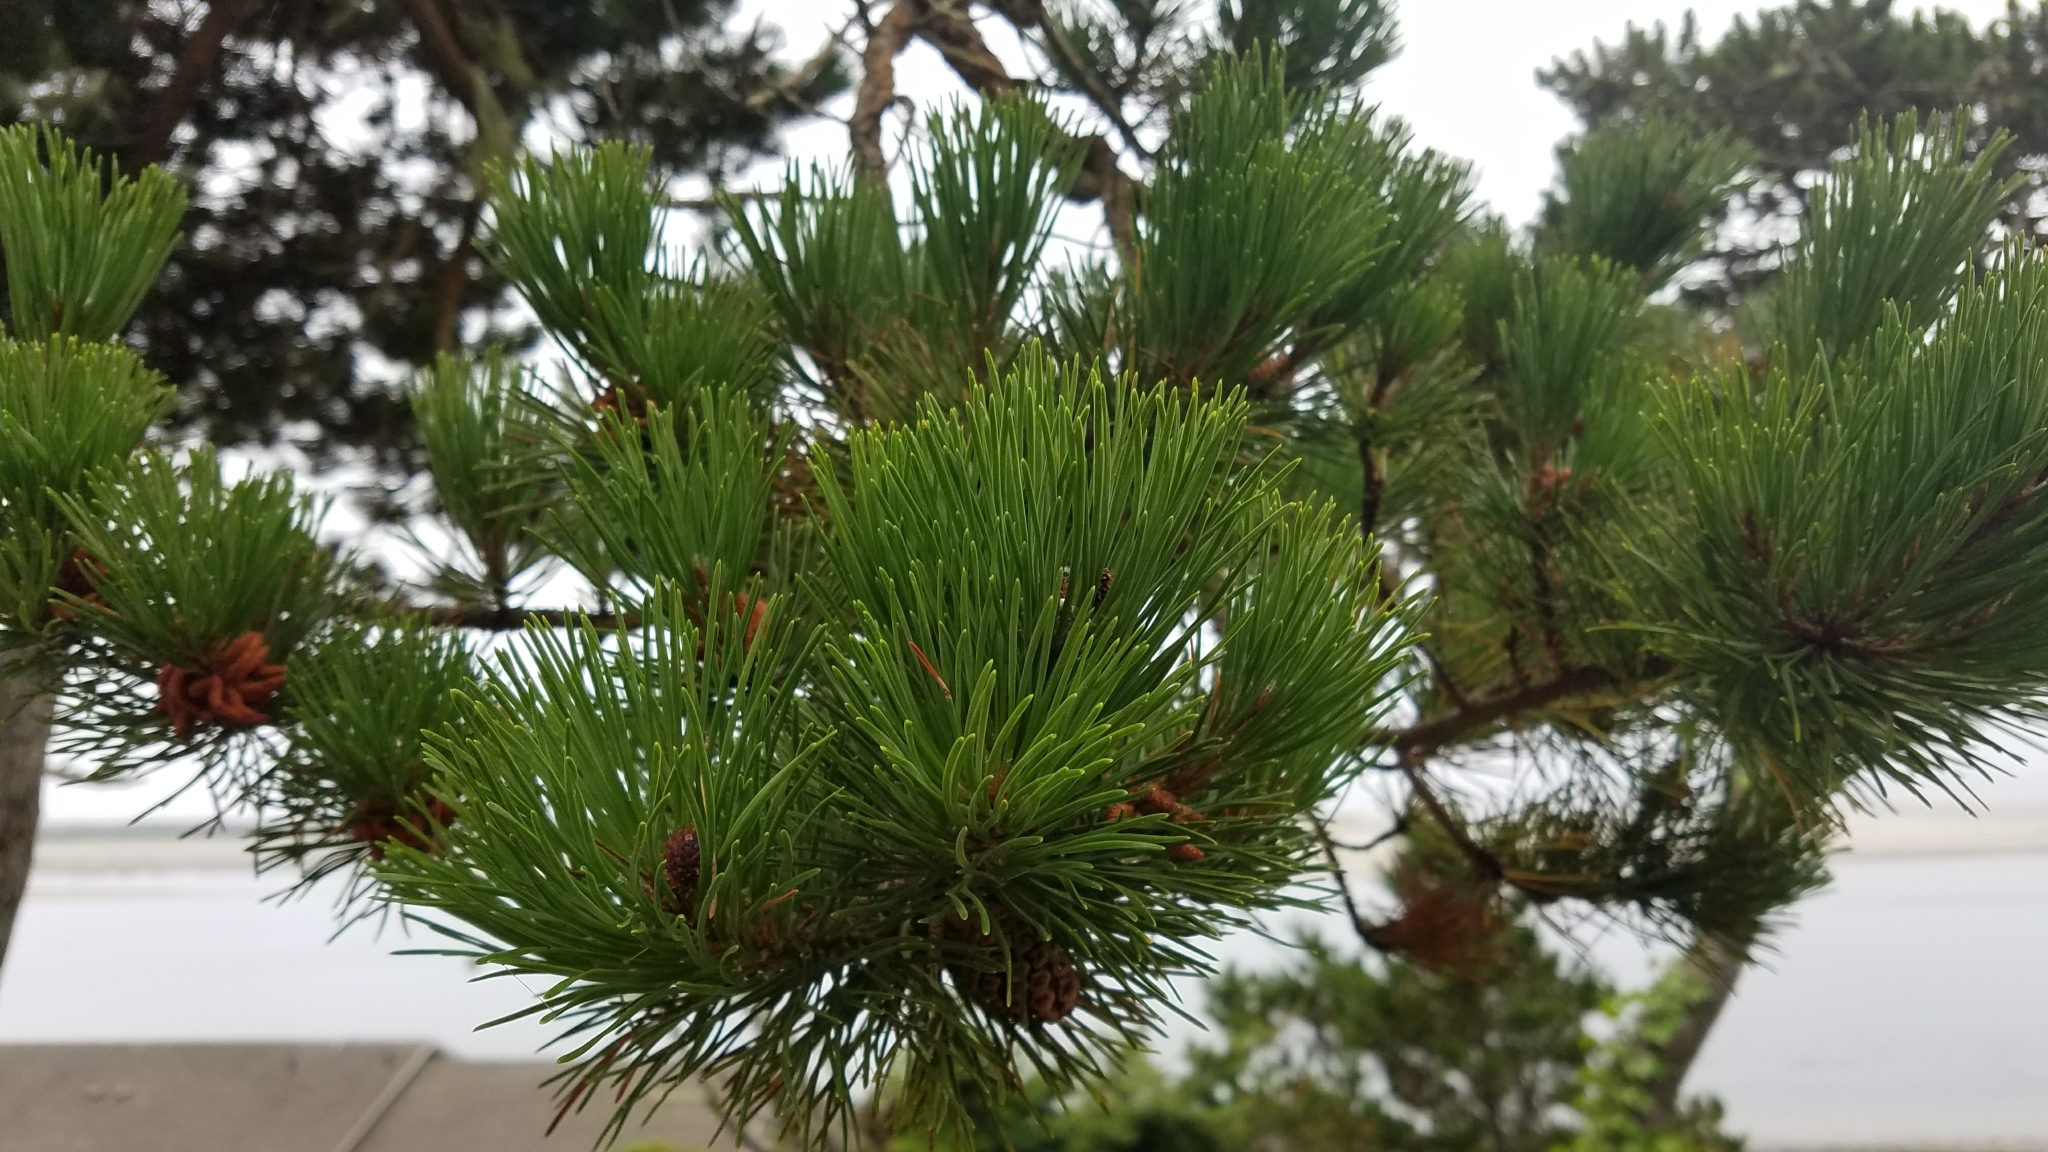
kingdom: Plantae
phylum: Tracheophyta
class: Pinopsida
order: Pinales
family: Pinaceae
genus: Pinus
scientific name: Pinus contorta
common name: Lodgepole pine
